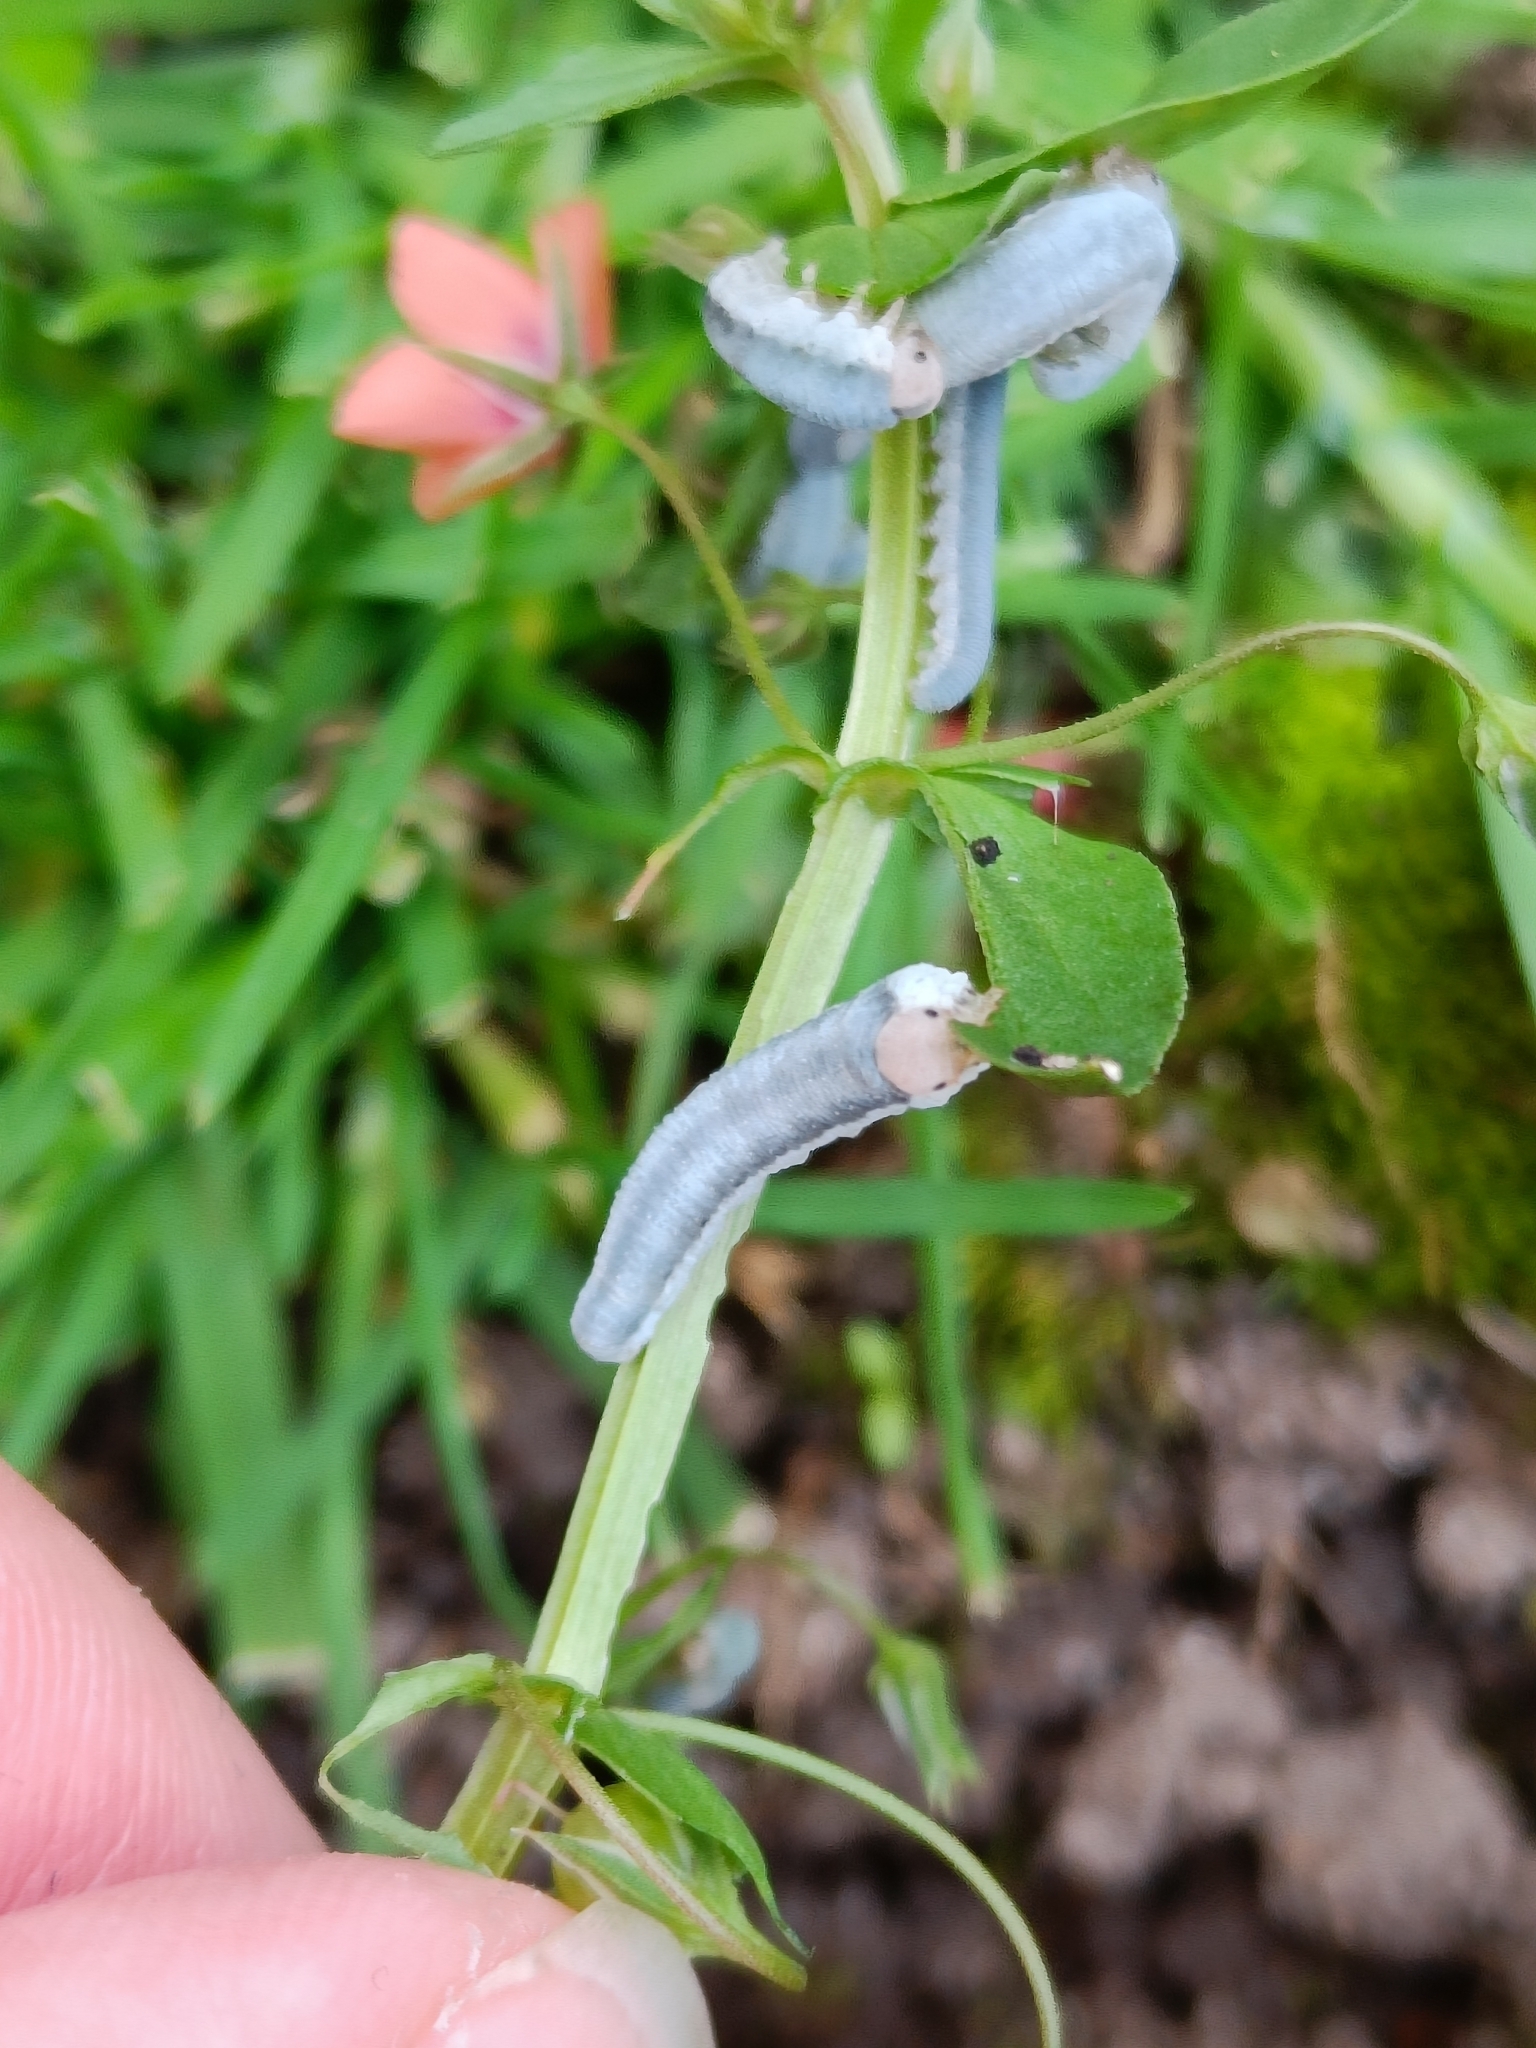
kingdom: Animalia
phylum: Arthropoda
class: Insecta
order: Hymenoptera
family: Tenthredinidae
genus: Monostegia
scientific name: Monostegia abdominalis
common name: Tenthredid wasp
